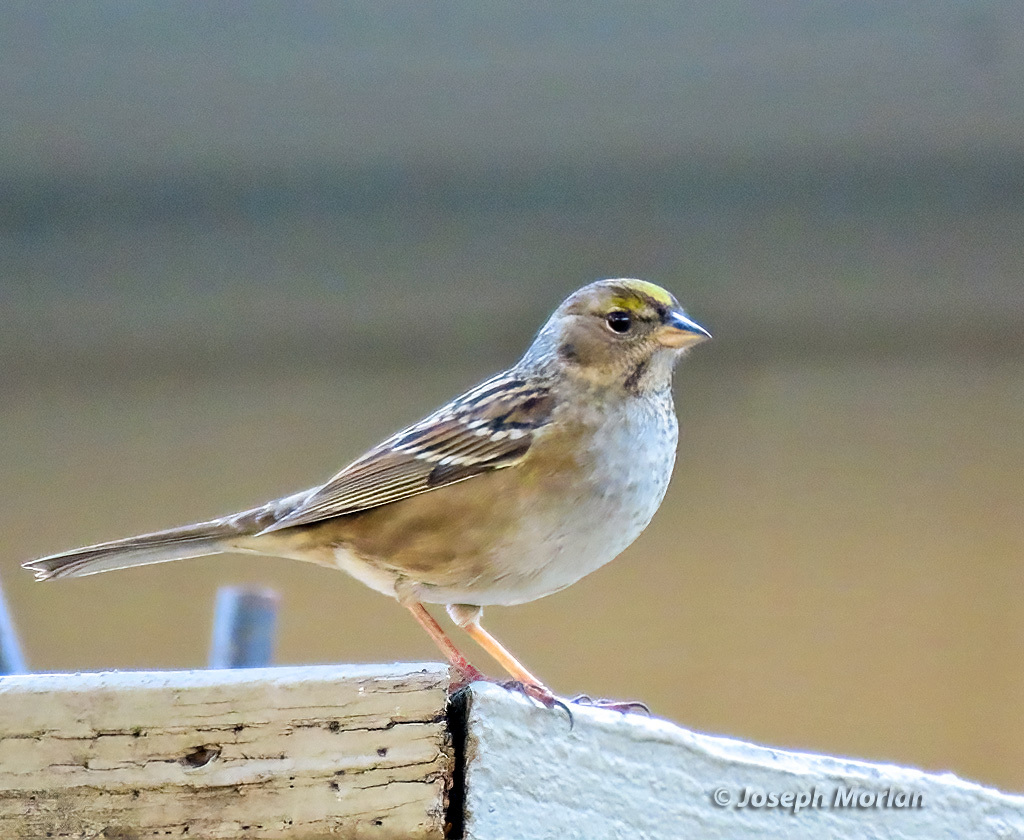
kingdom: Animalia
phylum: Chordata
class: Aves
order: Passeriformes
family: Passerellidae
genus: Zonotrichia
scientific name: Zonotrichia atricapilla
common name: Golden-crowned sparrow
